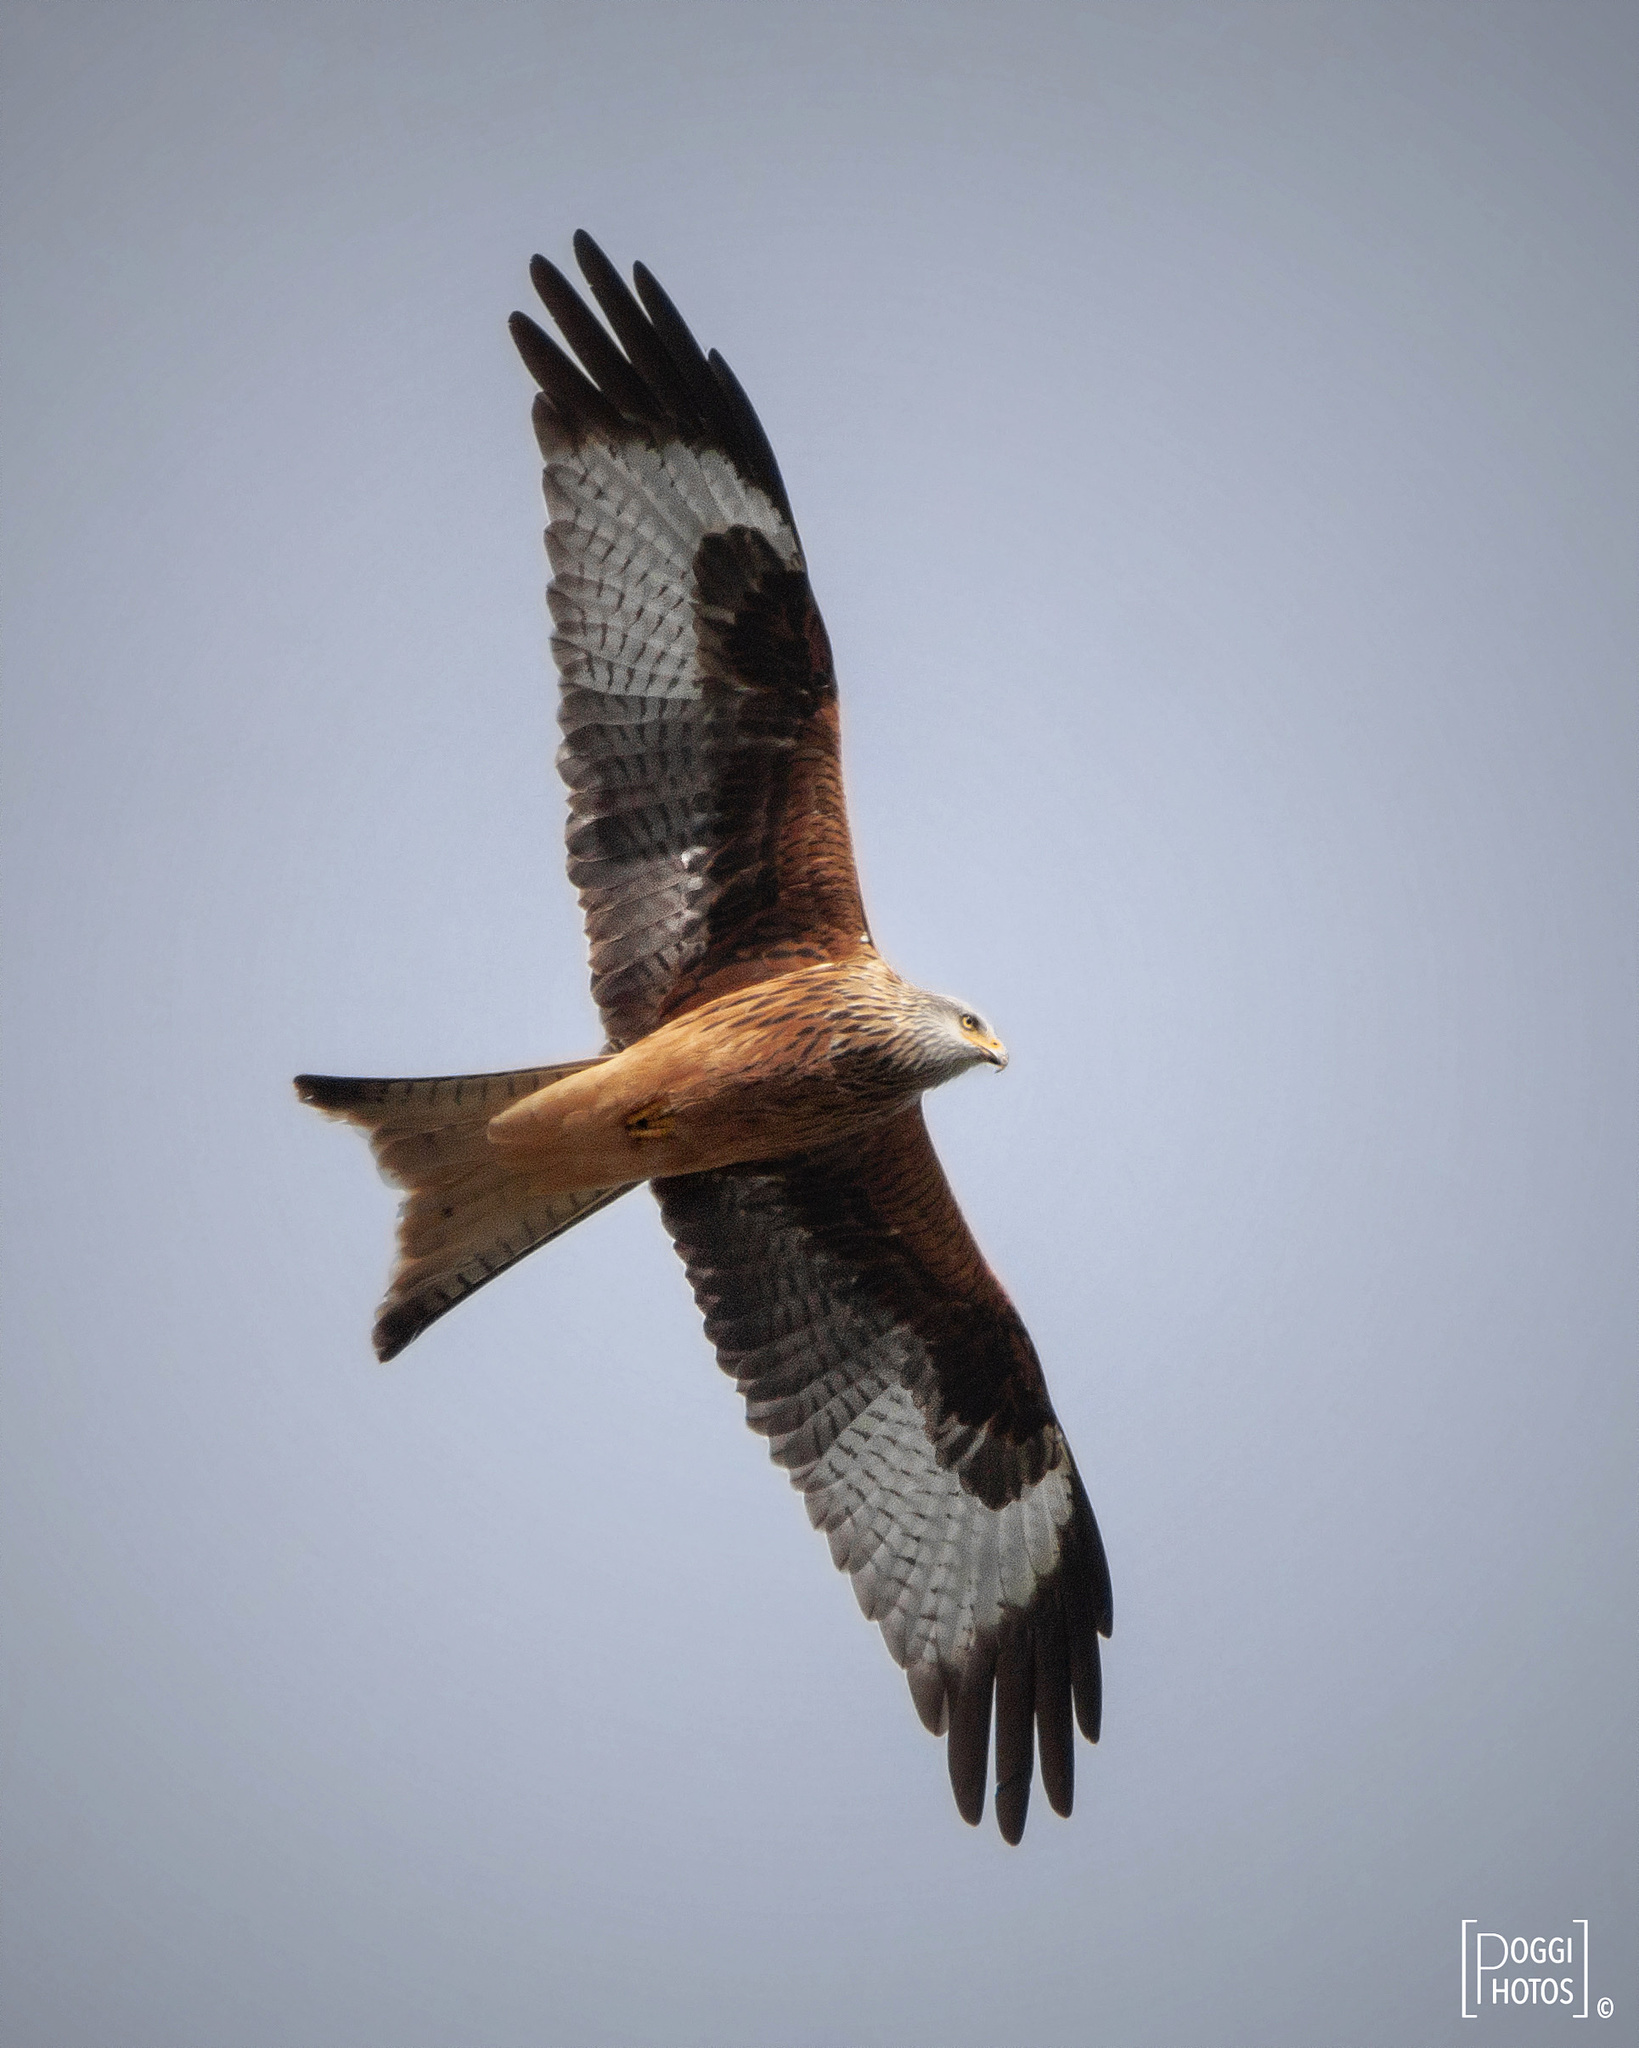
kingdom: Animalia
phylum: Chordata
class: Aves
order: Accipitriformes
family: Accipitridae
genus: Milvus
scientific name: Milvus milvus
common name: Red kite
